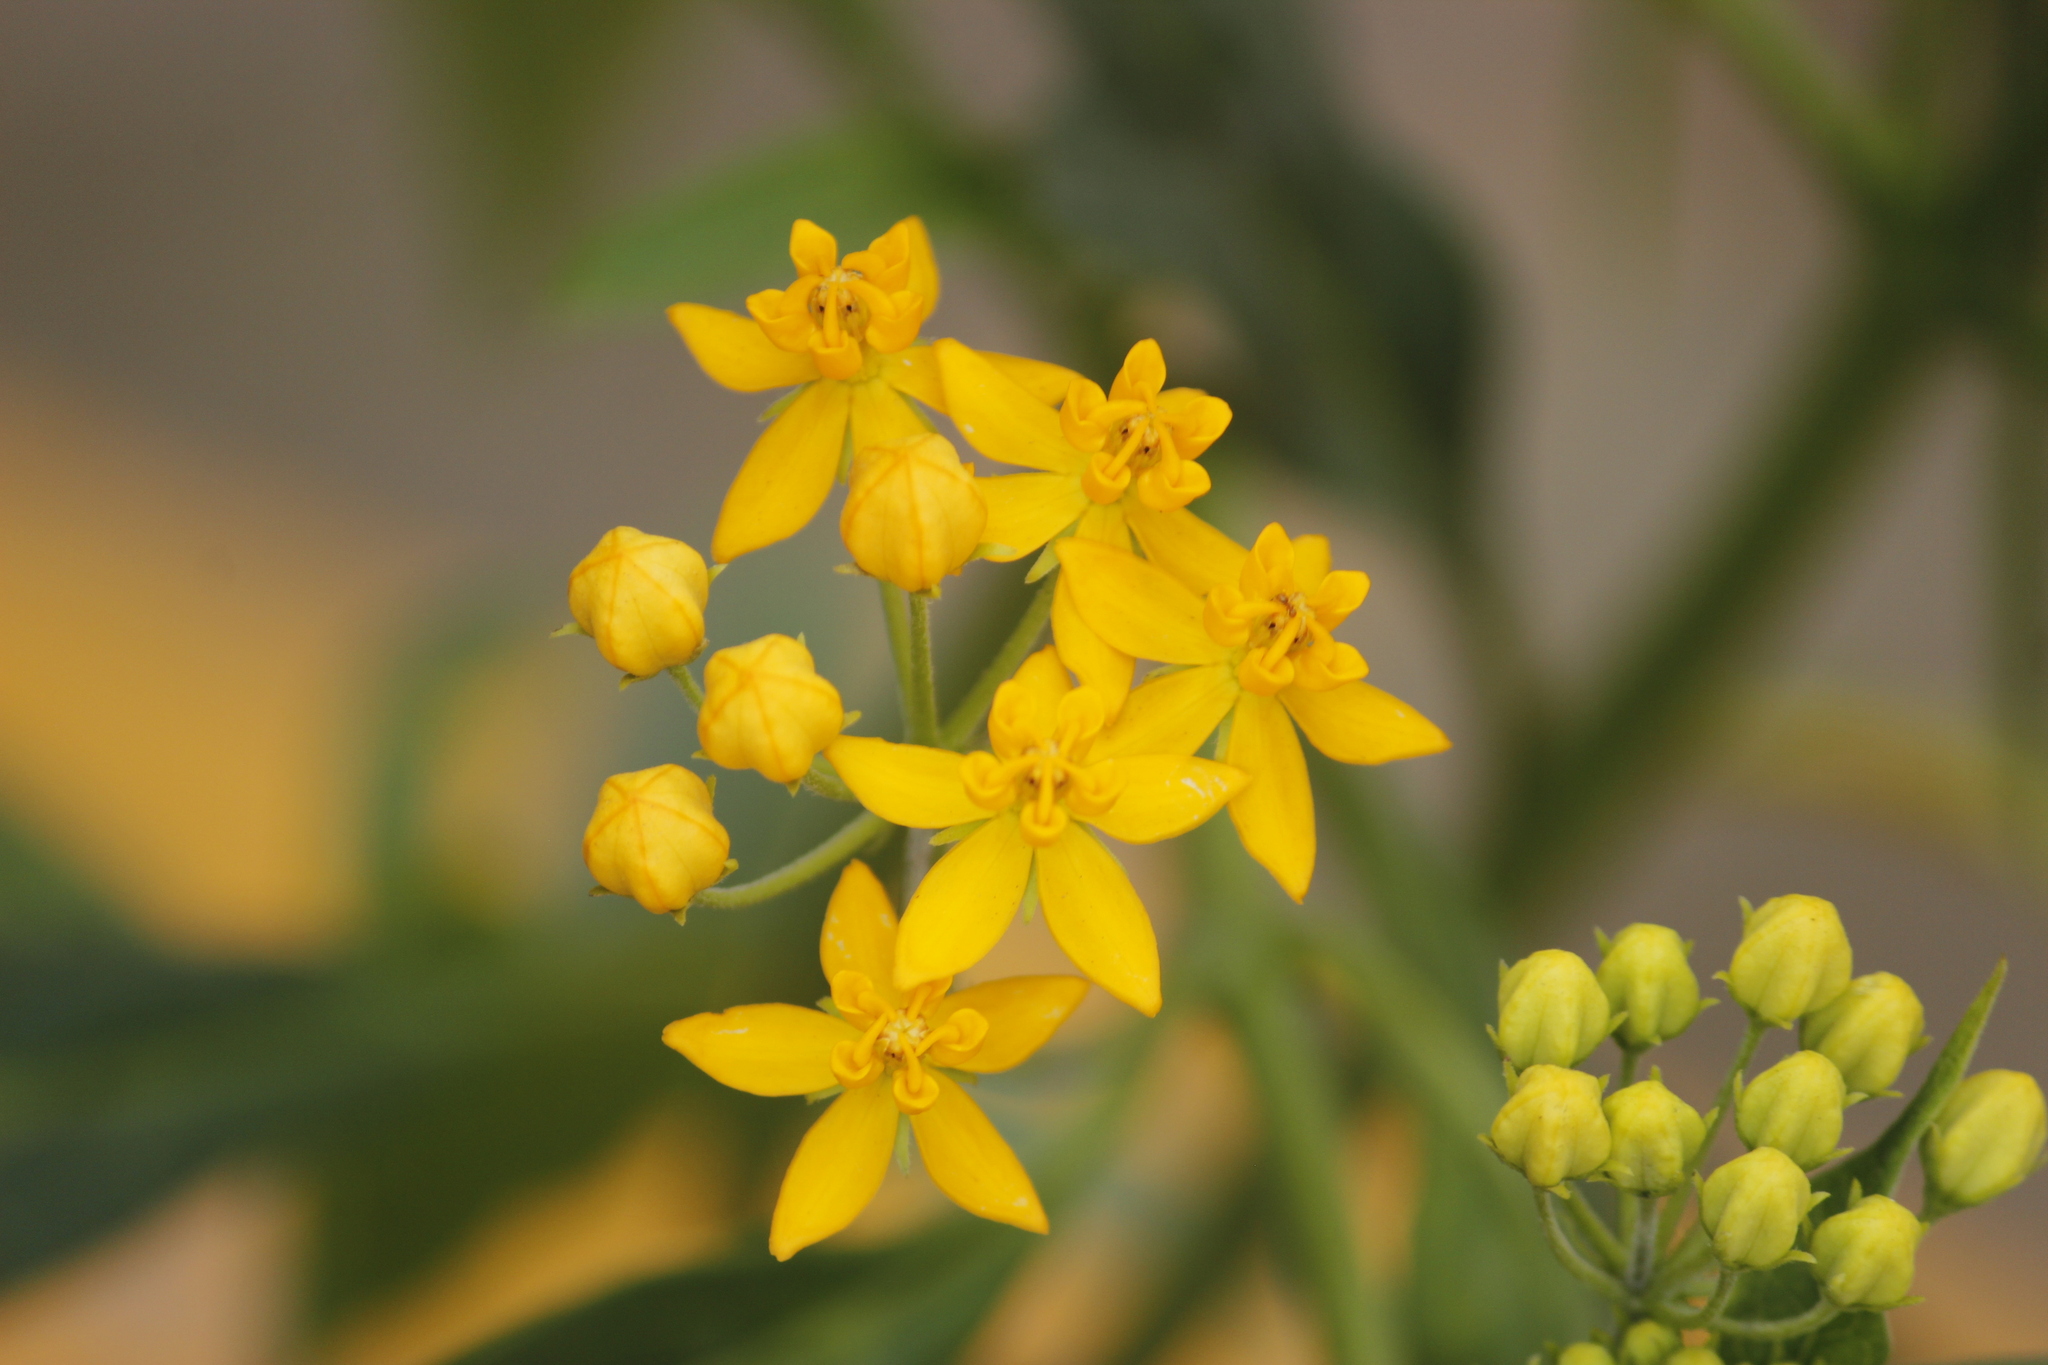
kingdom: Plantae
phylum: Tracheophyta
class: Magnoliopsida
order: Gentianales
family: Apocynaceae
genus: Asclepias
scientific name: Asclepias curassavica
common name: Bloodflower
